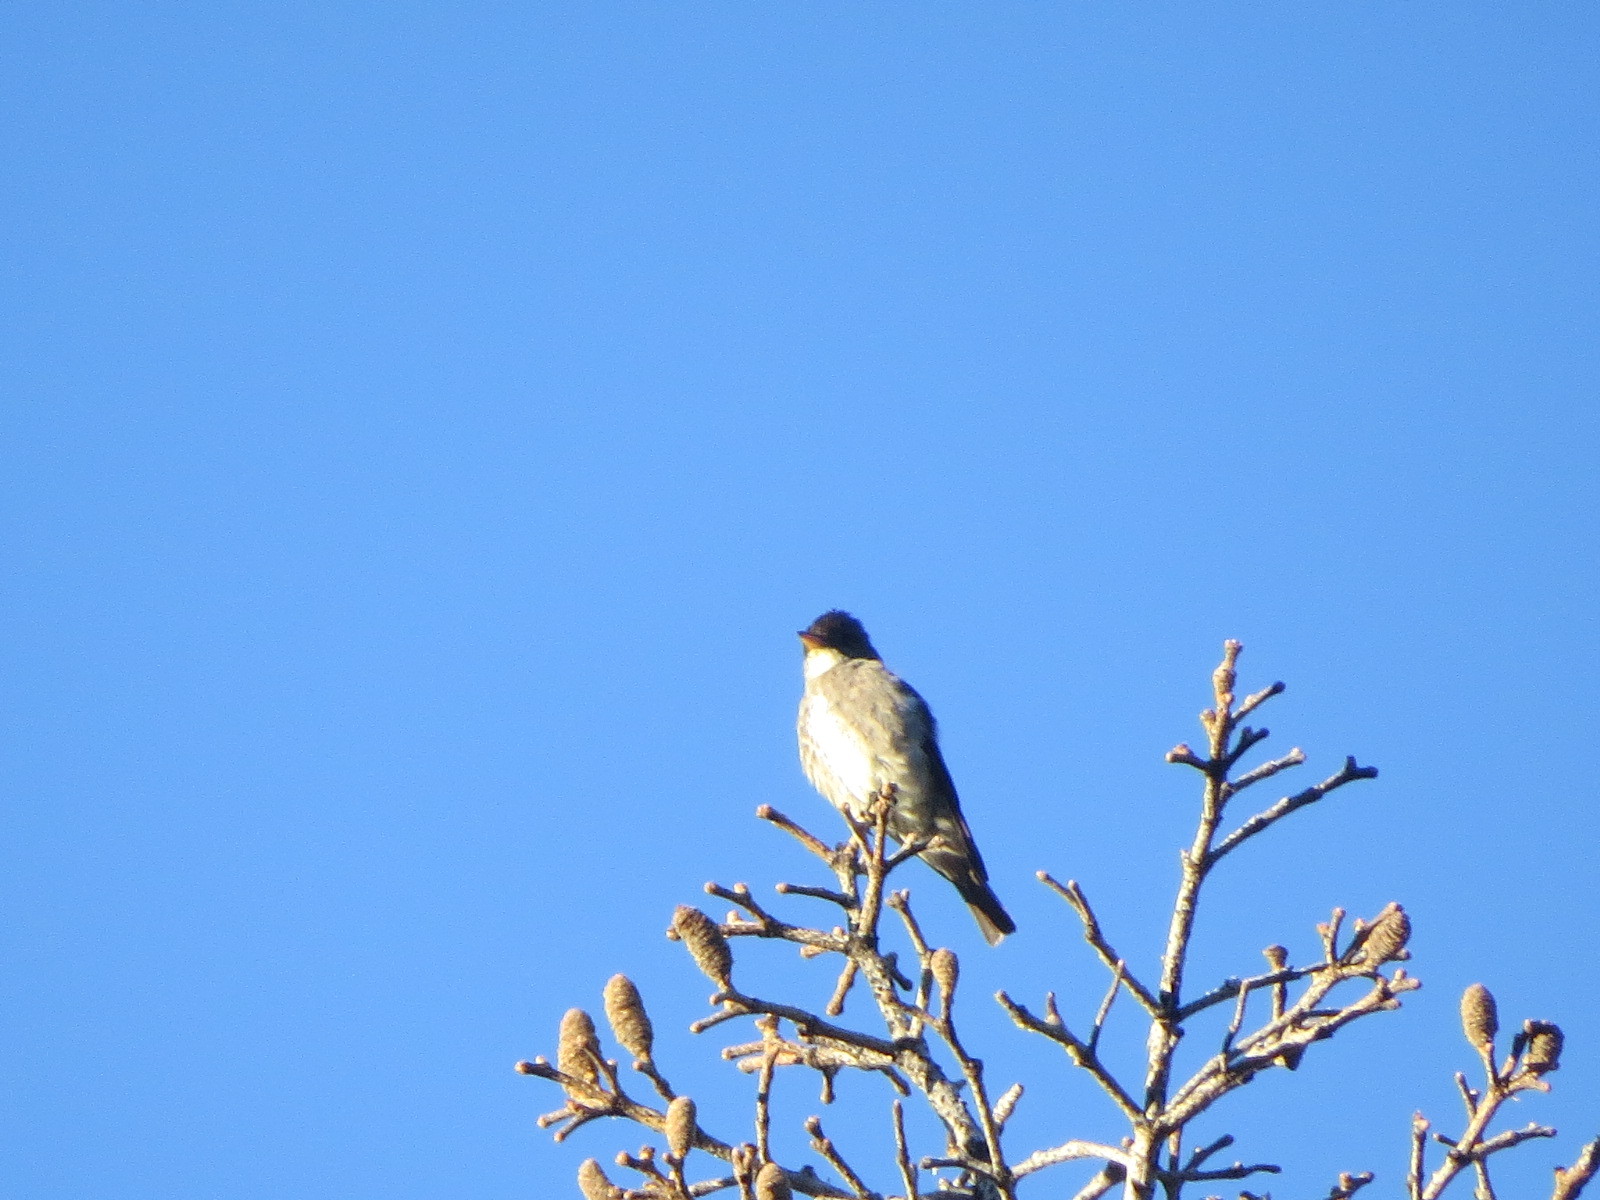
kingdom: Animalia
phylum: Chordata
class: Aves
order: Passeriformes
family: Tyrannidae
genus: Contopus
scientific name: Contopus cooperi
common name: Olive-sided flycatcher
